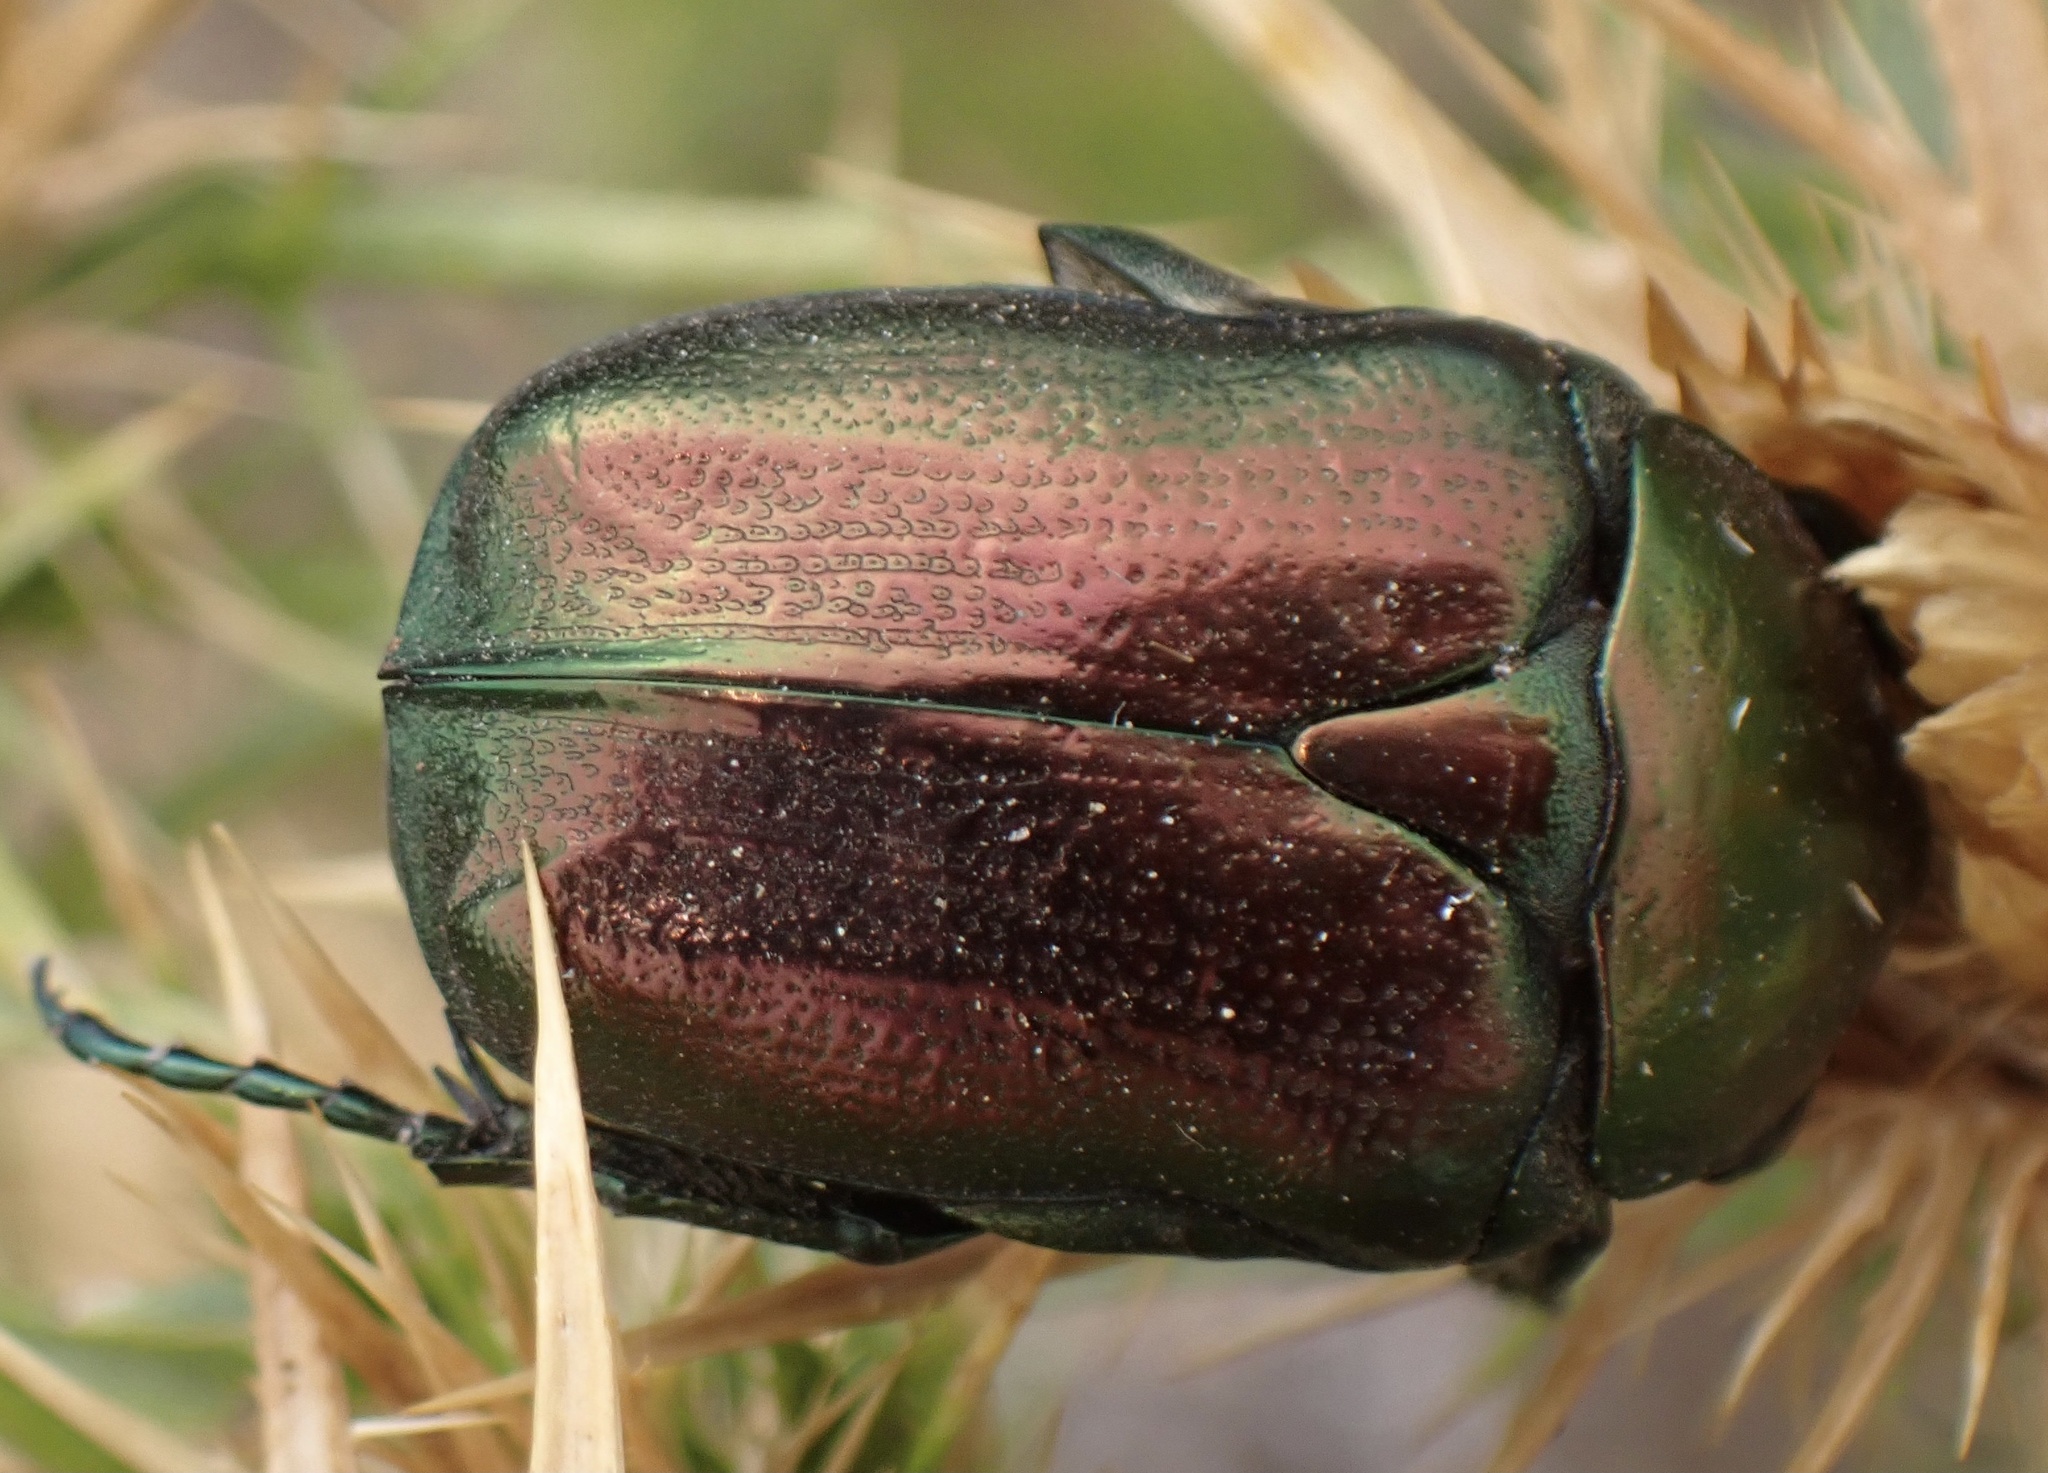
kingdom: Animalia
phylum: Arthropoda
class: Insecta
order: Coleoptera
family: Scarabaeidae
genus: Protaetia
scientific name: Protaetia angustata
